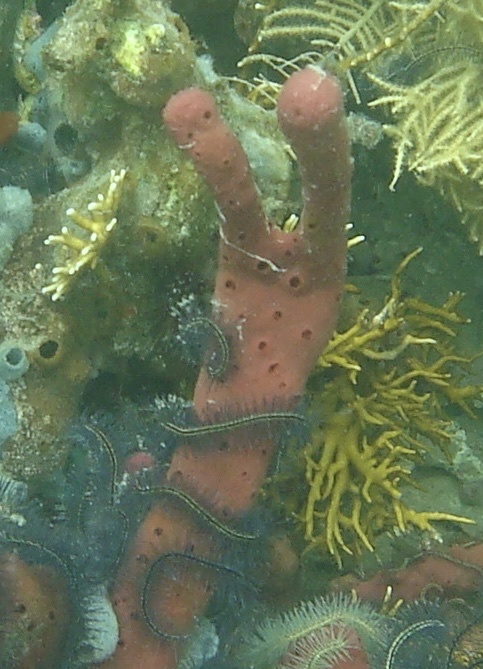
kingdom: Animalia
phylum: Porifera
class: Demospongiae
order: Haplosclerida
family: Niphatidae
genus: Amphimedon
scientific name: Amphimedon compressa
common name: Red sponge
